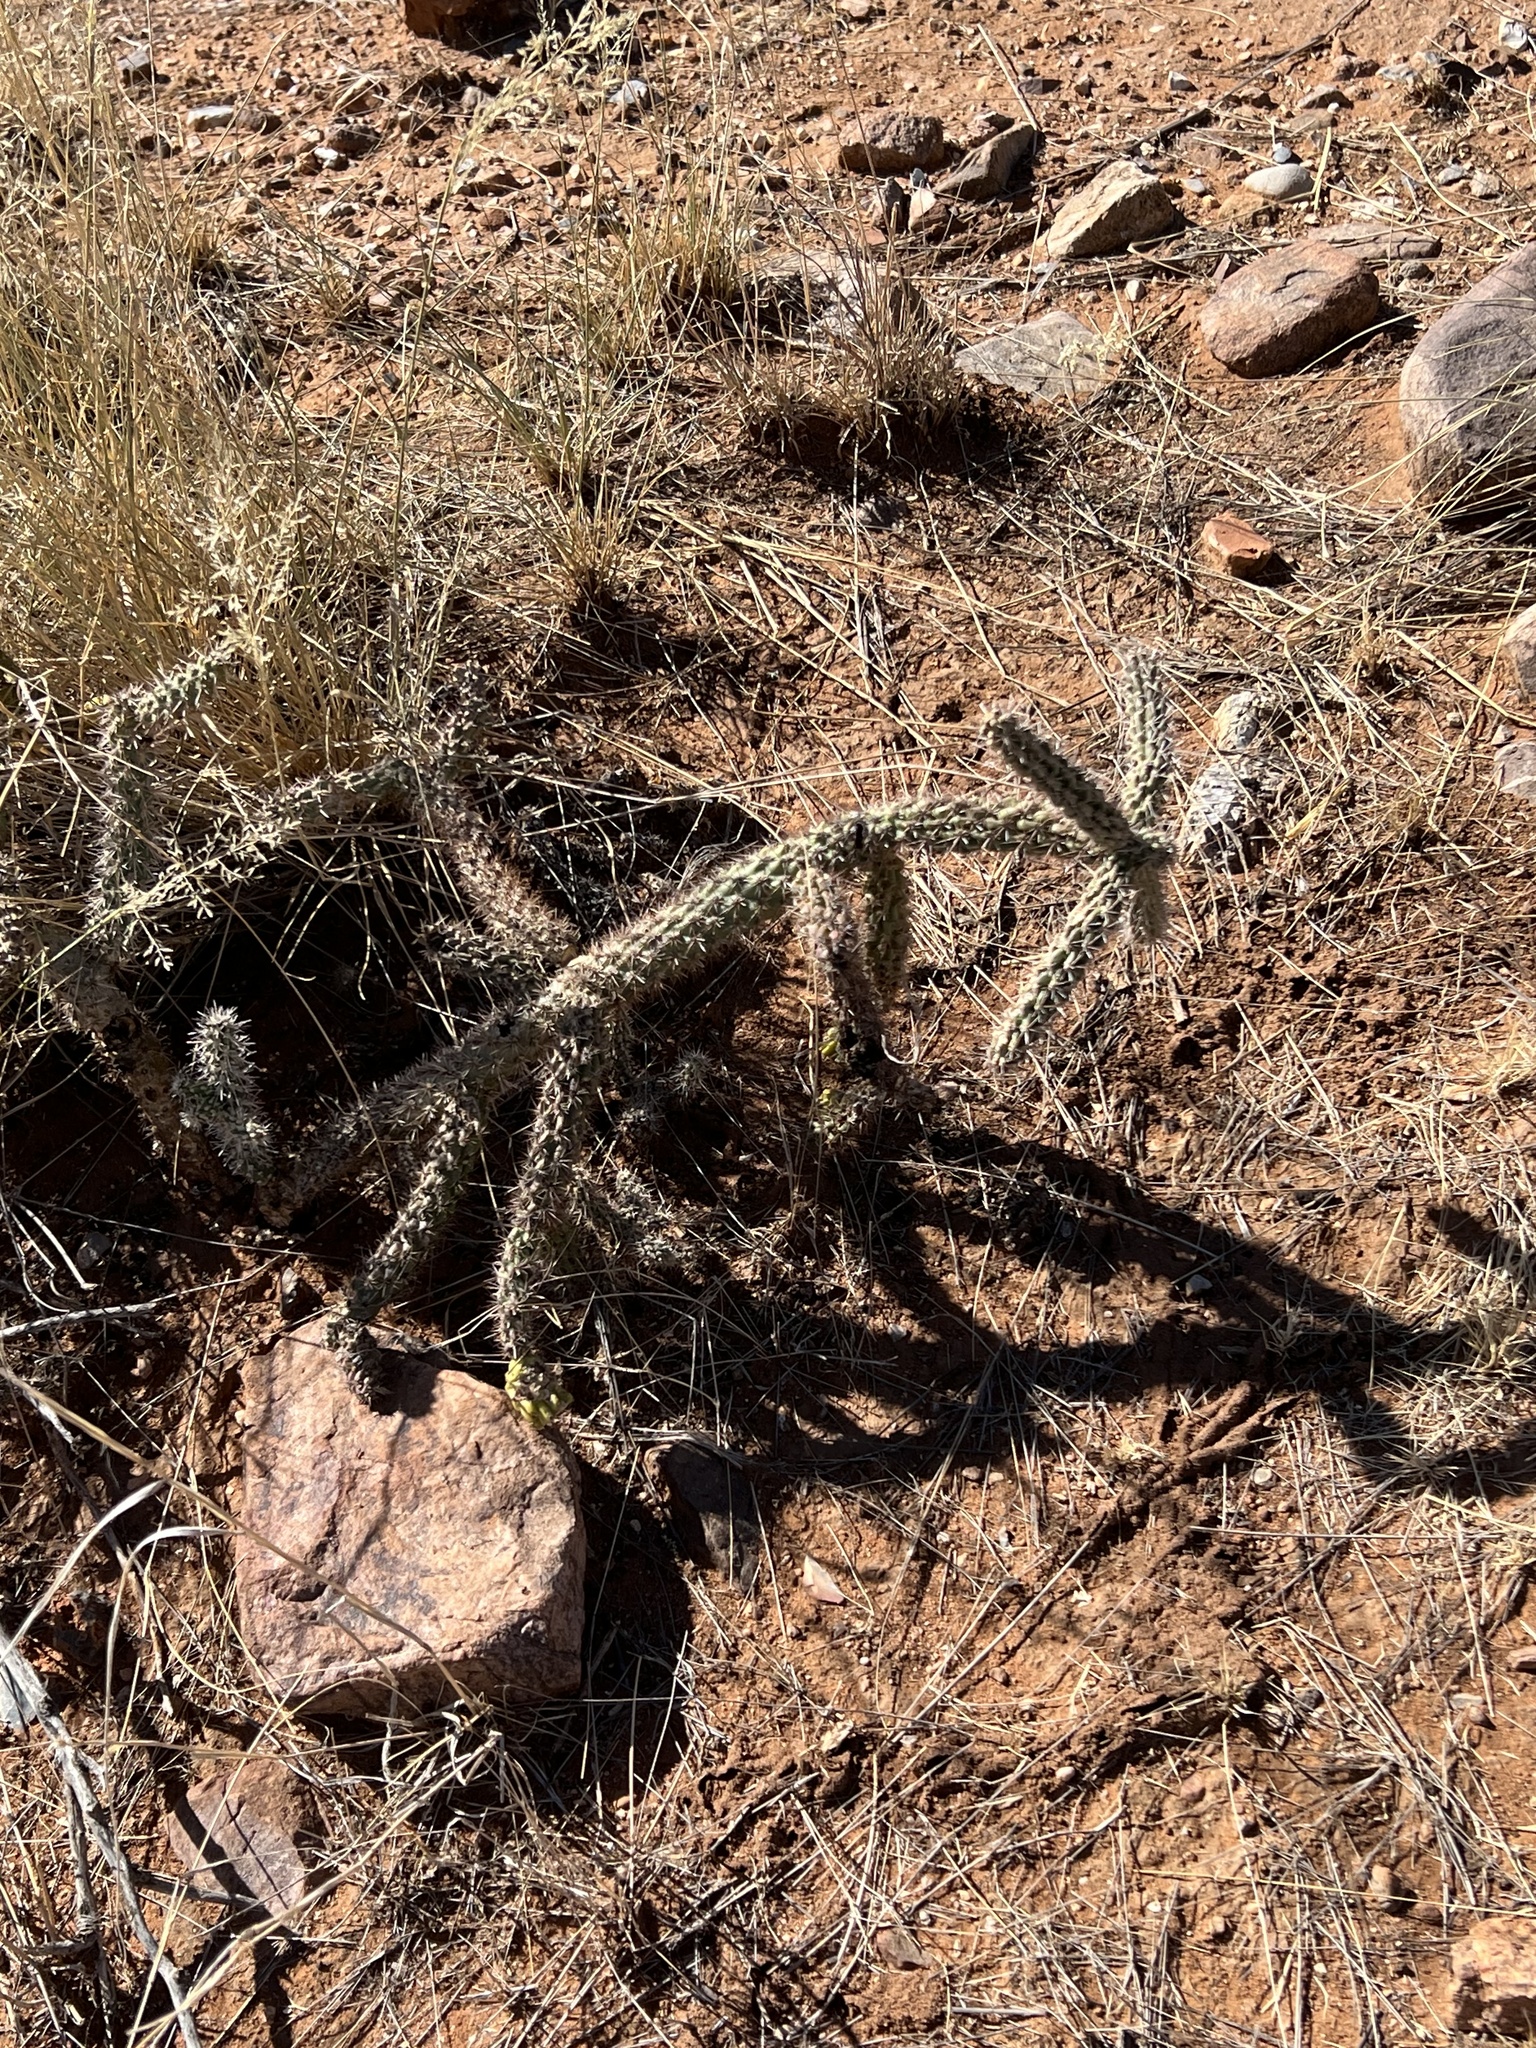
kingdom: Plantae
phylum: Tracheophyta
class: Magnoliopsida
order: Caryophyllales
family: Cactaceae
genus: Cylindropuntia
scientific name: Cylindropuntia imbricata
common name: Candelabrum cactus
